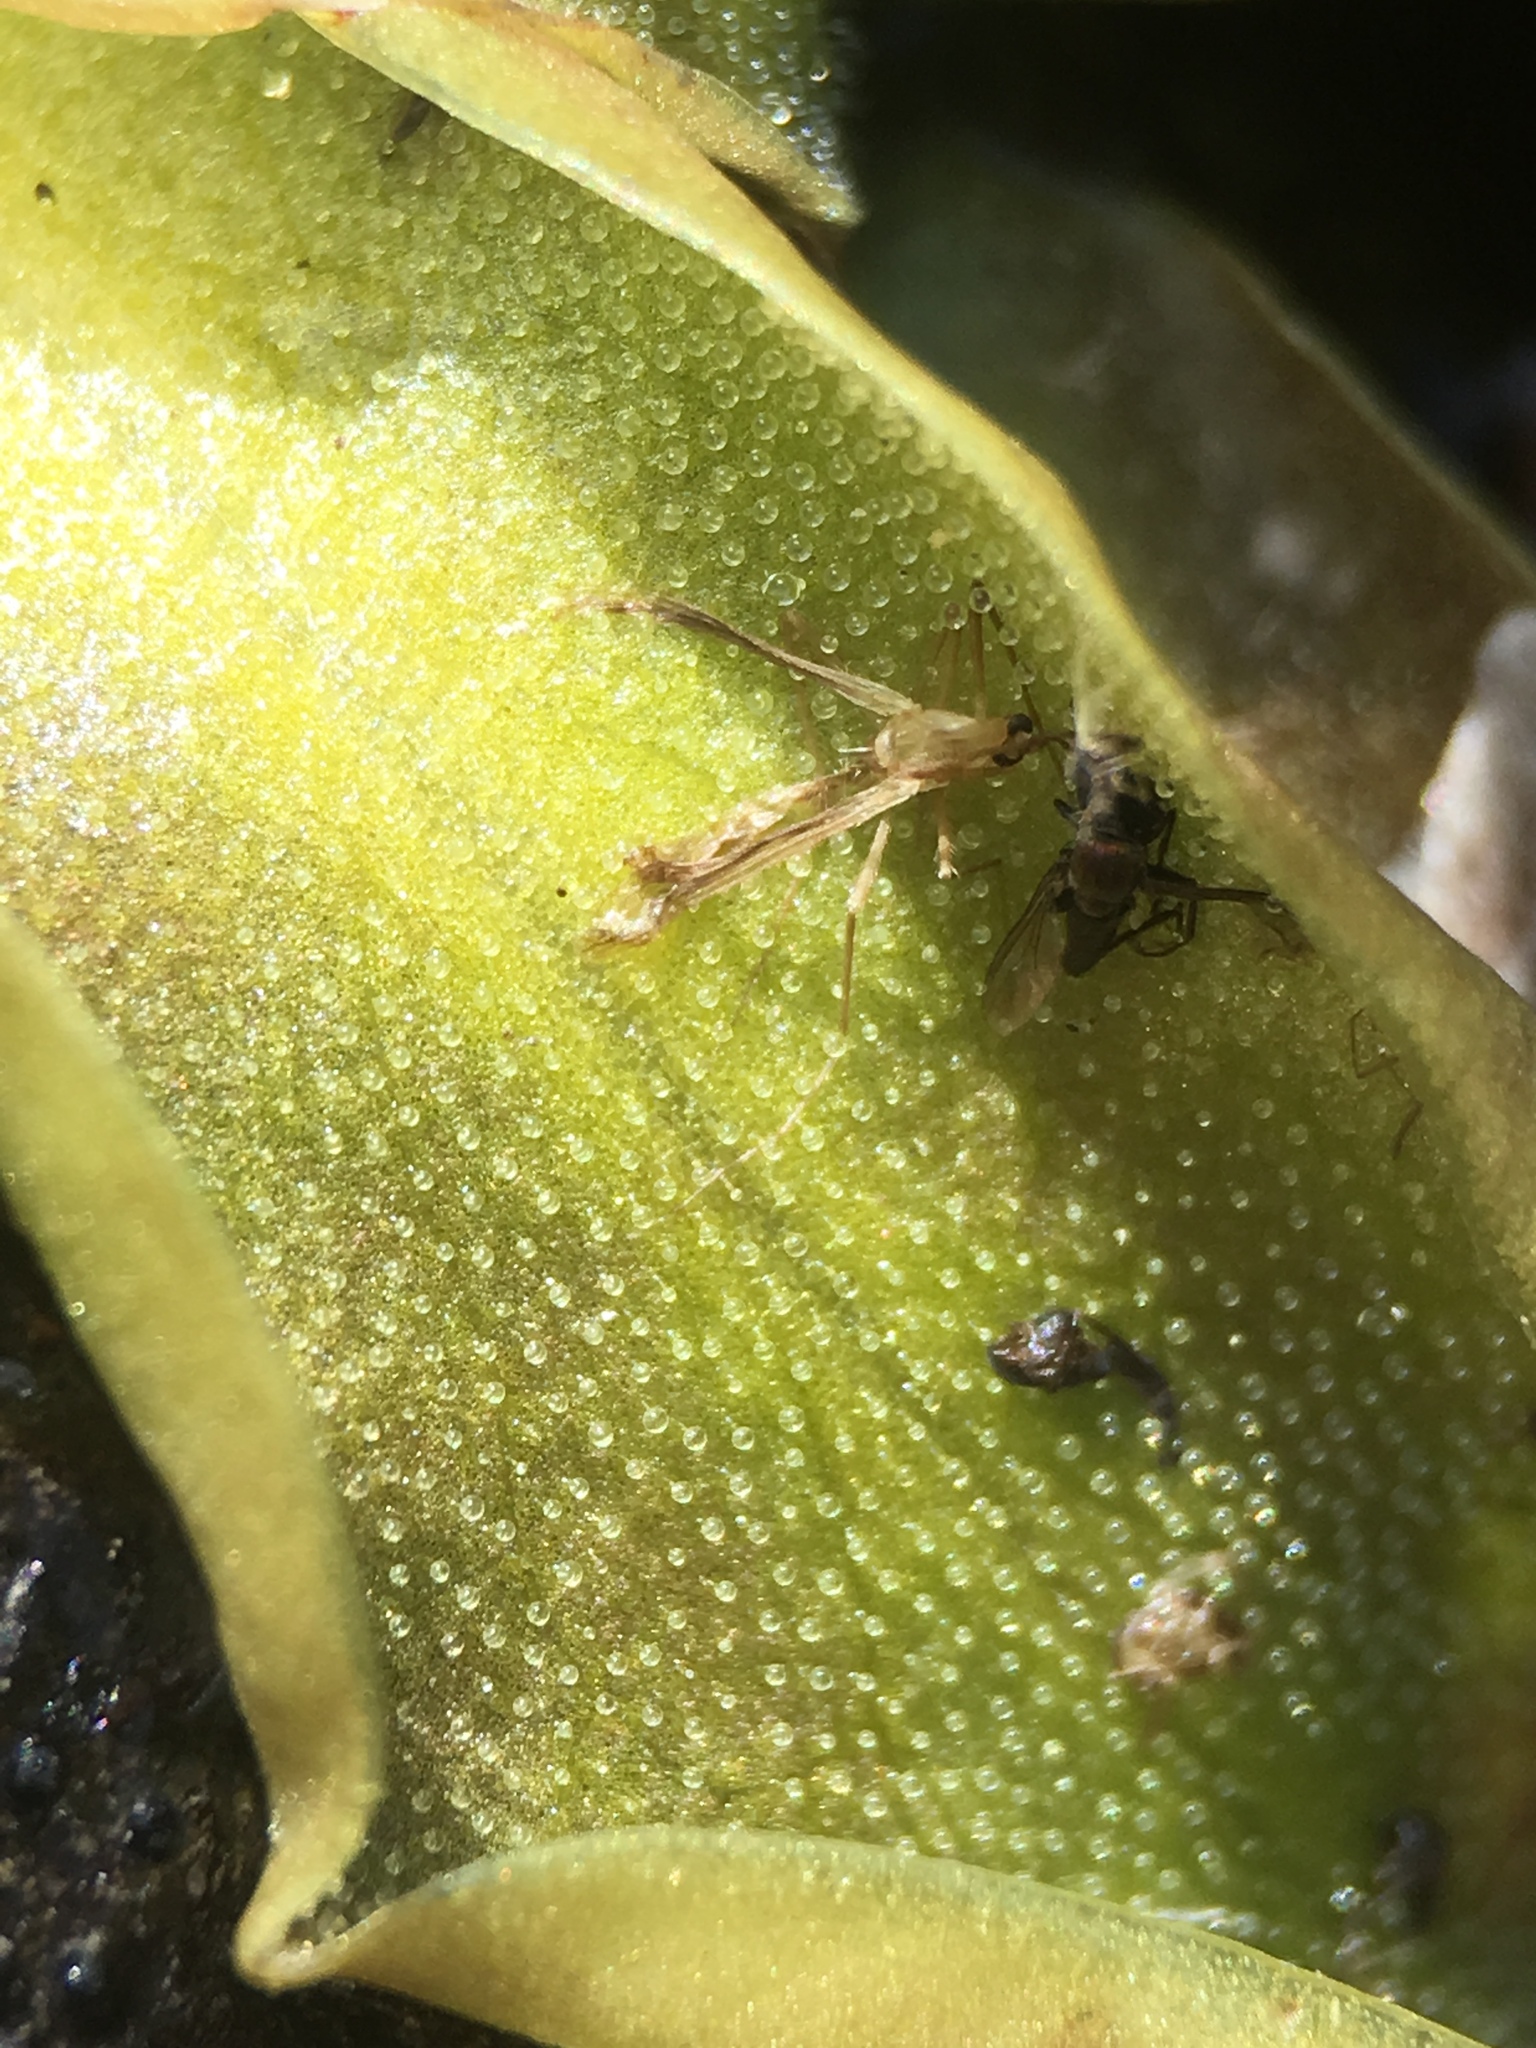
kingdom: Plantae
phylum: Tracheophyta
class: Magnoliopsida
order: Lamiales
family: Lentibulariaceae
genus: Pinguicula
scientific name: Pinguicula macroceras
